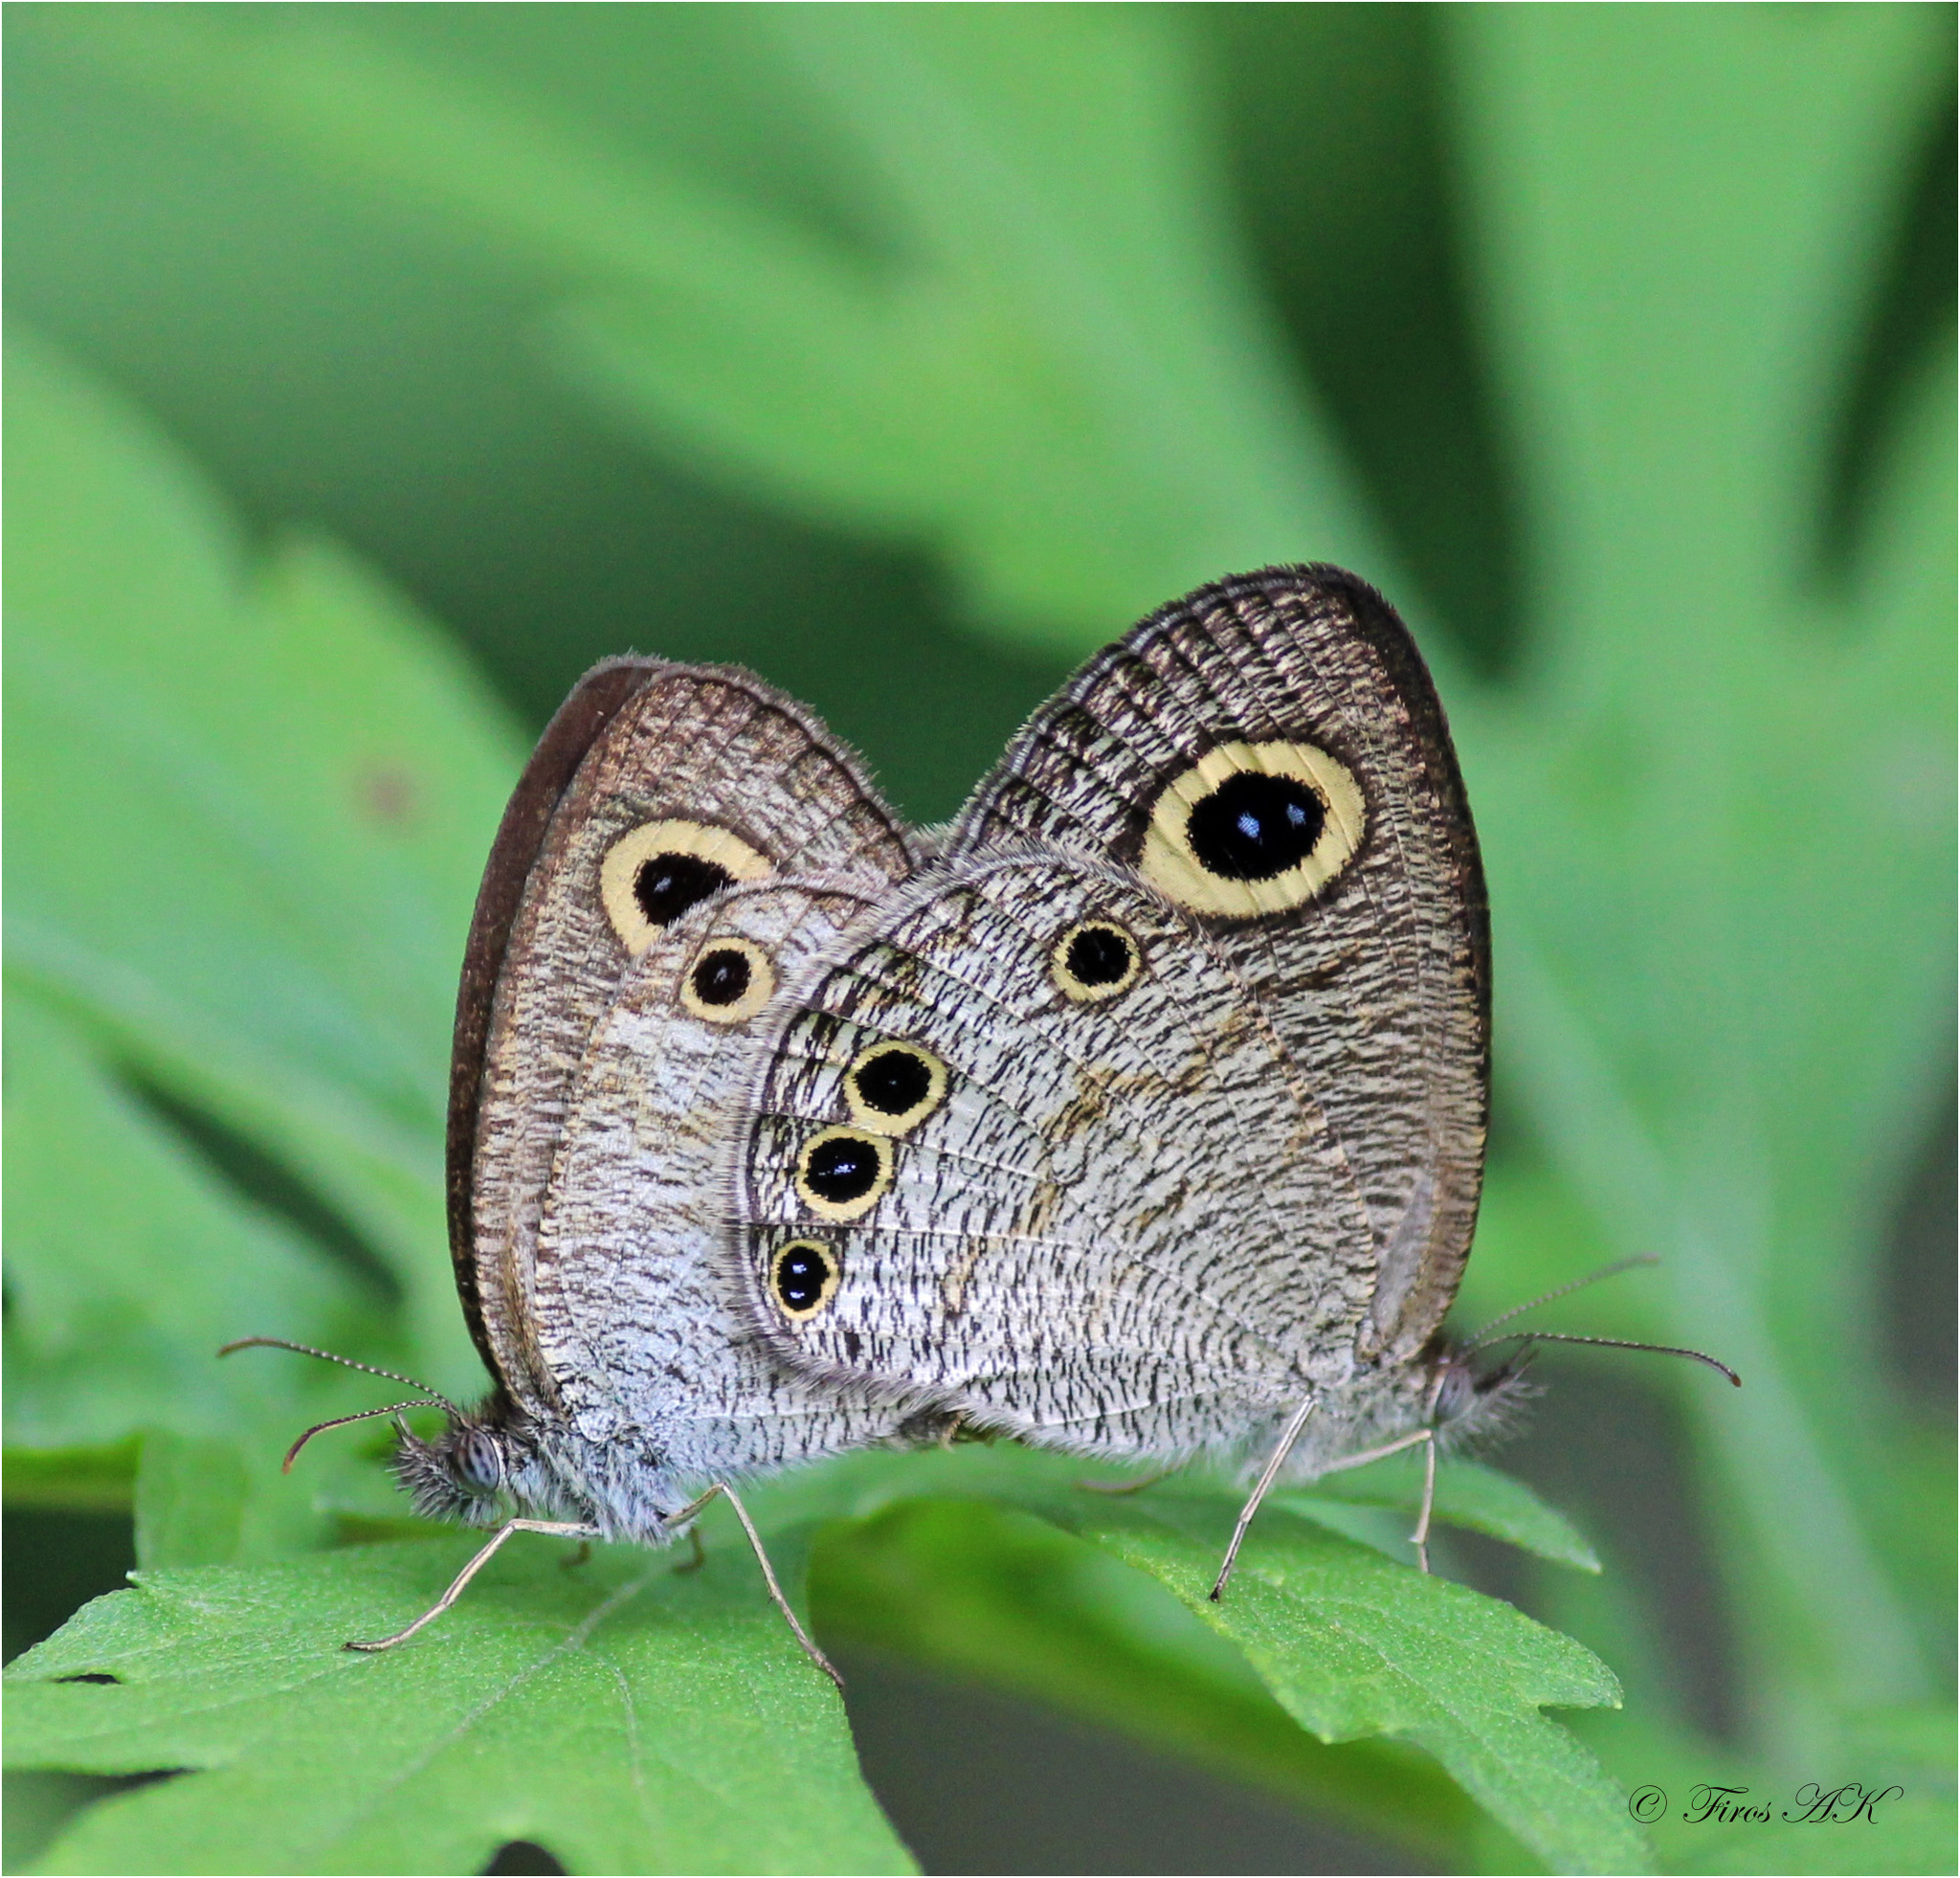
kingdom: Animalia
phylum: Arthropoda
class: Insecta
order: Lepidoptera
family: Nymphalidae
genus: Ypthima
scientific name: Ypthima huebneri
